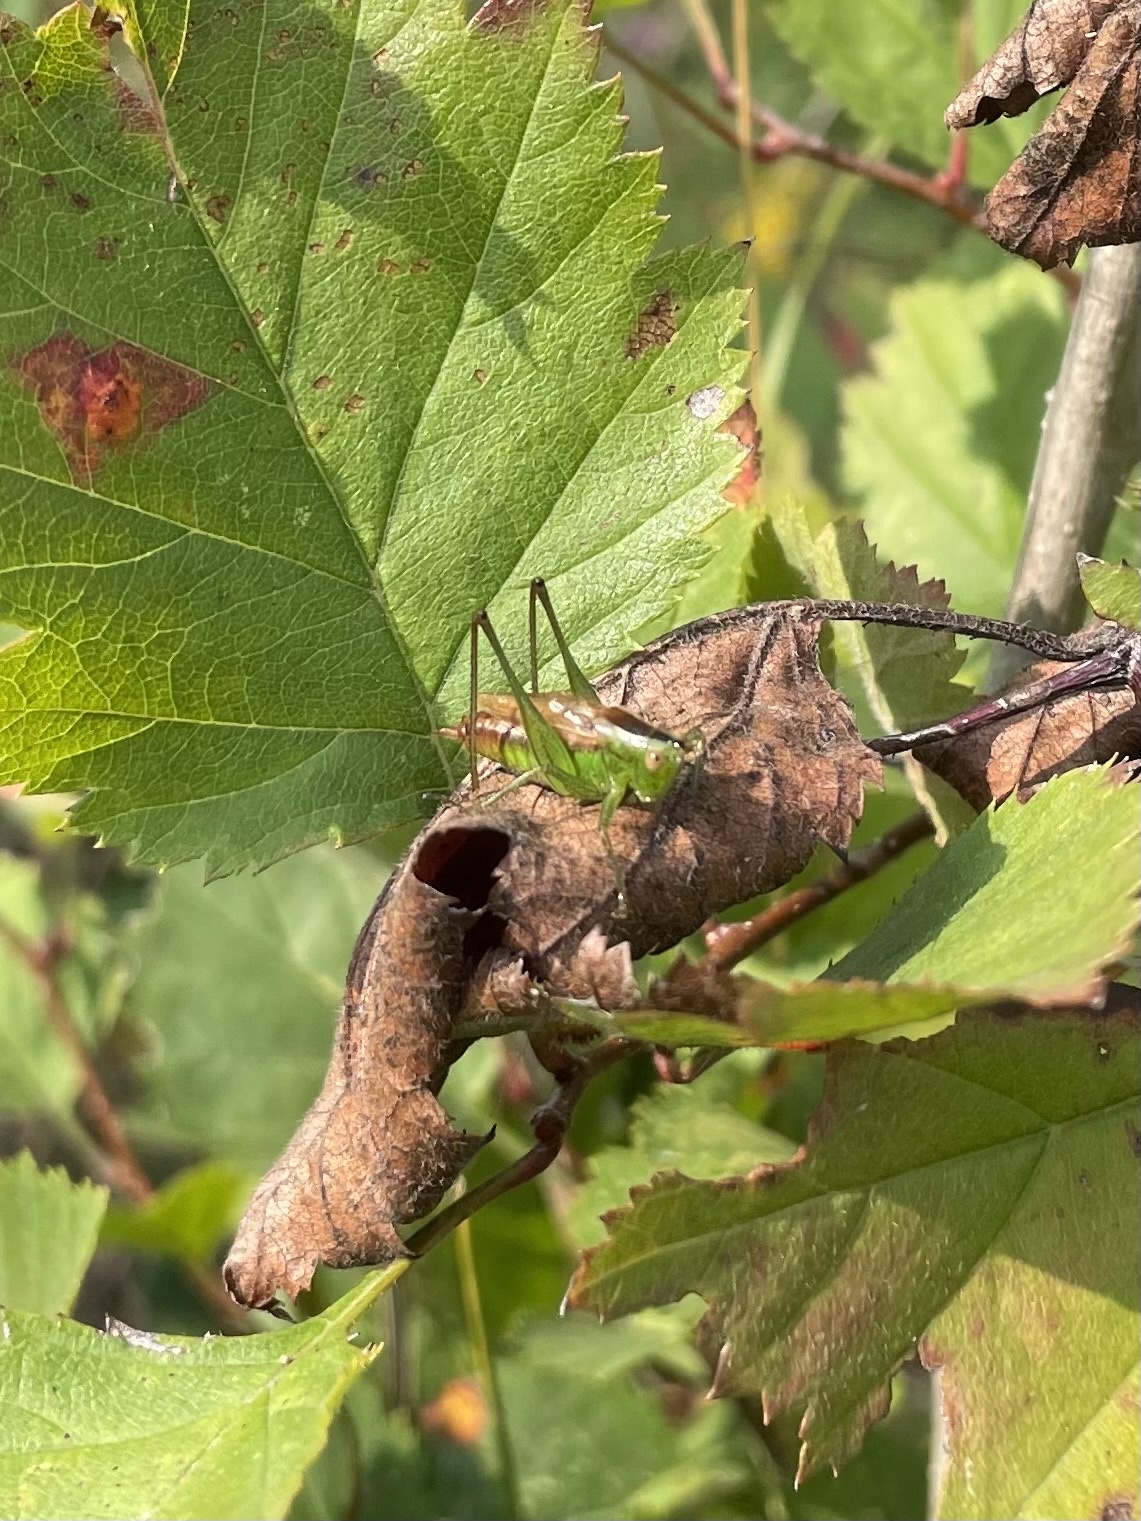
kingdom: Animalia
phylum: Arthropoda
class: Insecta
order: Orthoptera
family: Tettigoniidae
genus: Conocephalus
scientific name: Conocephalus brevipennis
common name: Short-winged meadow katydid
